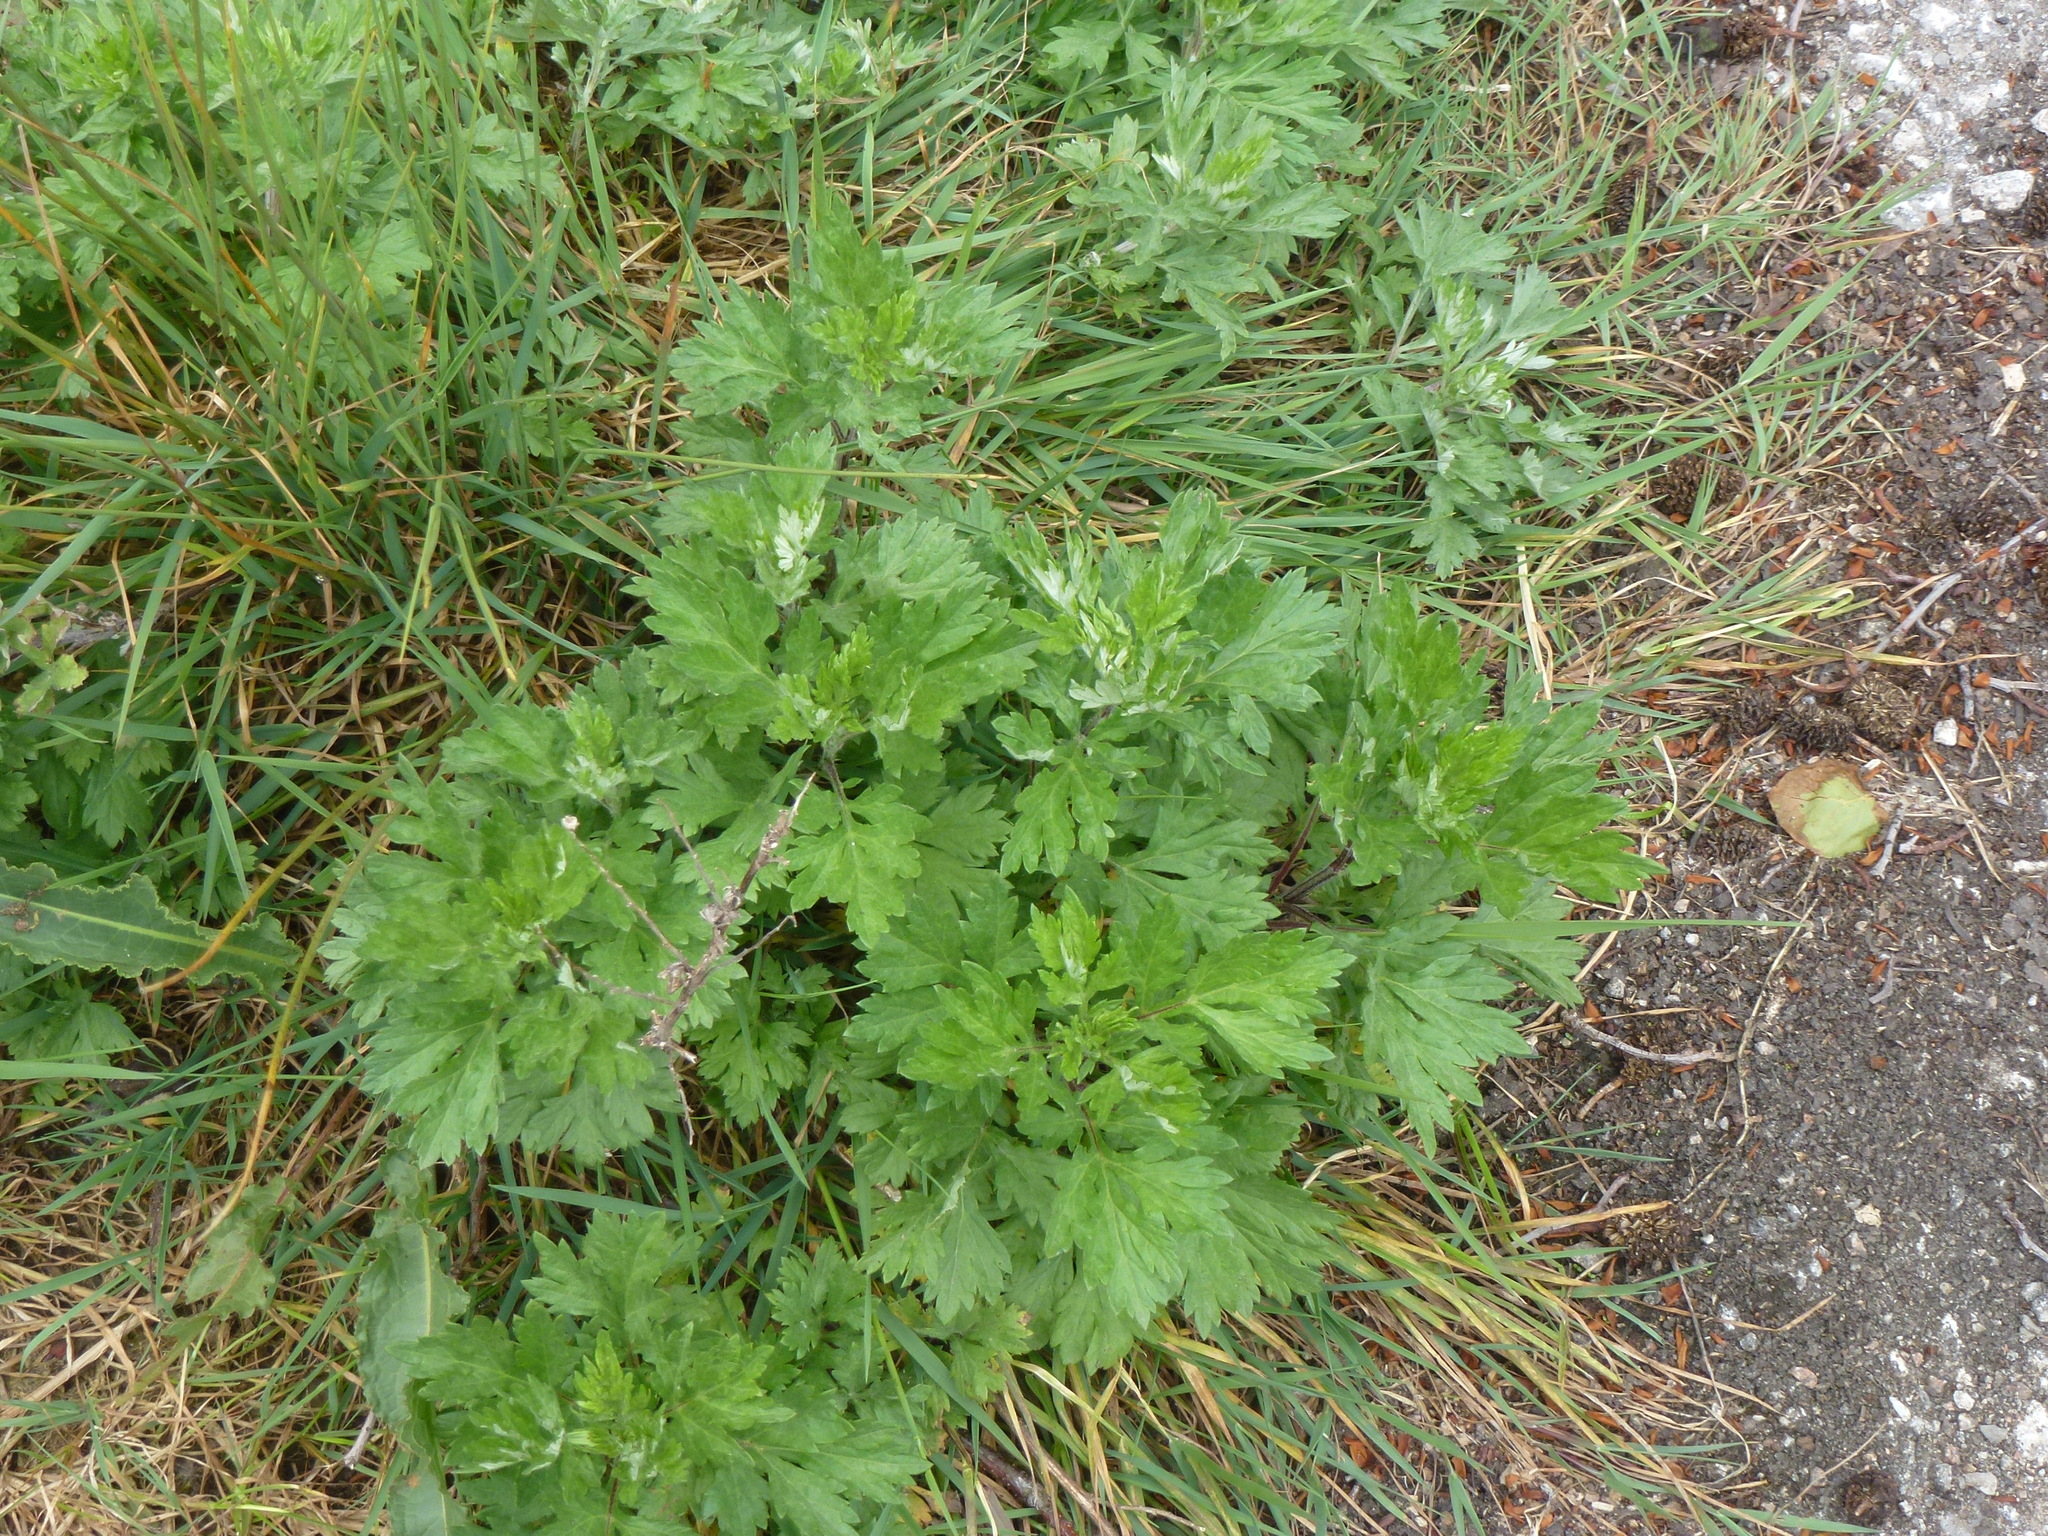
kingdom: Plantae
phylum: Tracheophyta
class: Magnoliopsida
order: Asterales
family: Asteraceae
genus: Artemisia
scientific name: Artemisia vulgaris
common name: Mugwort
